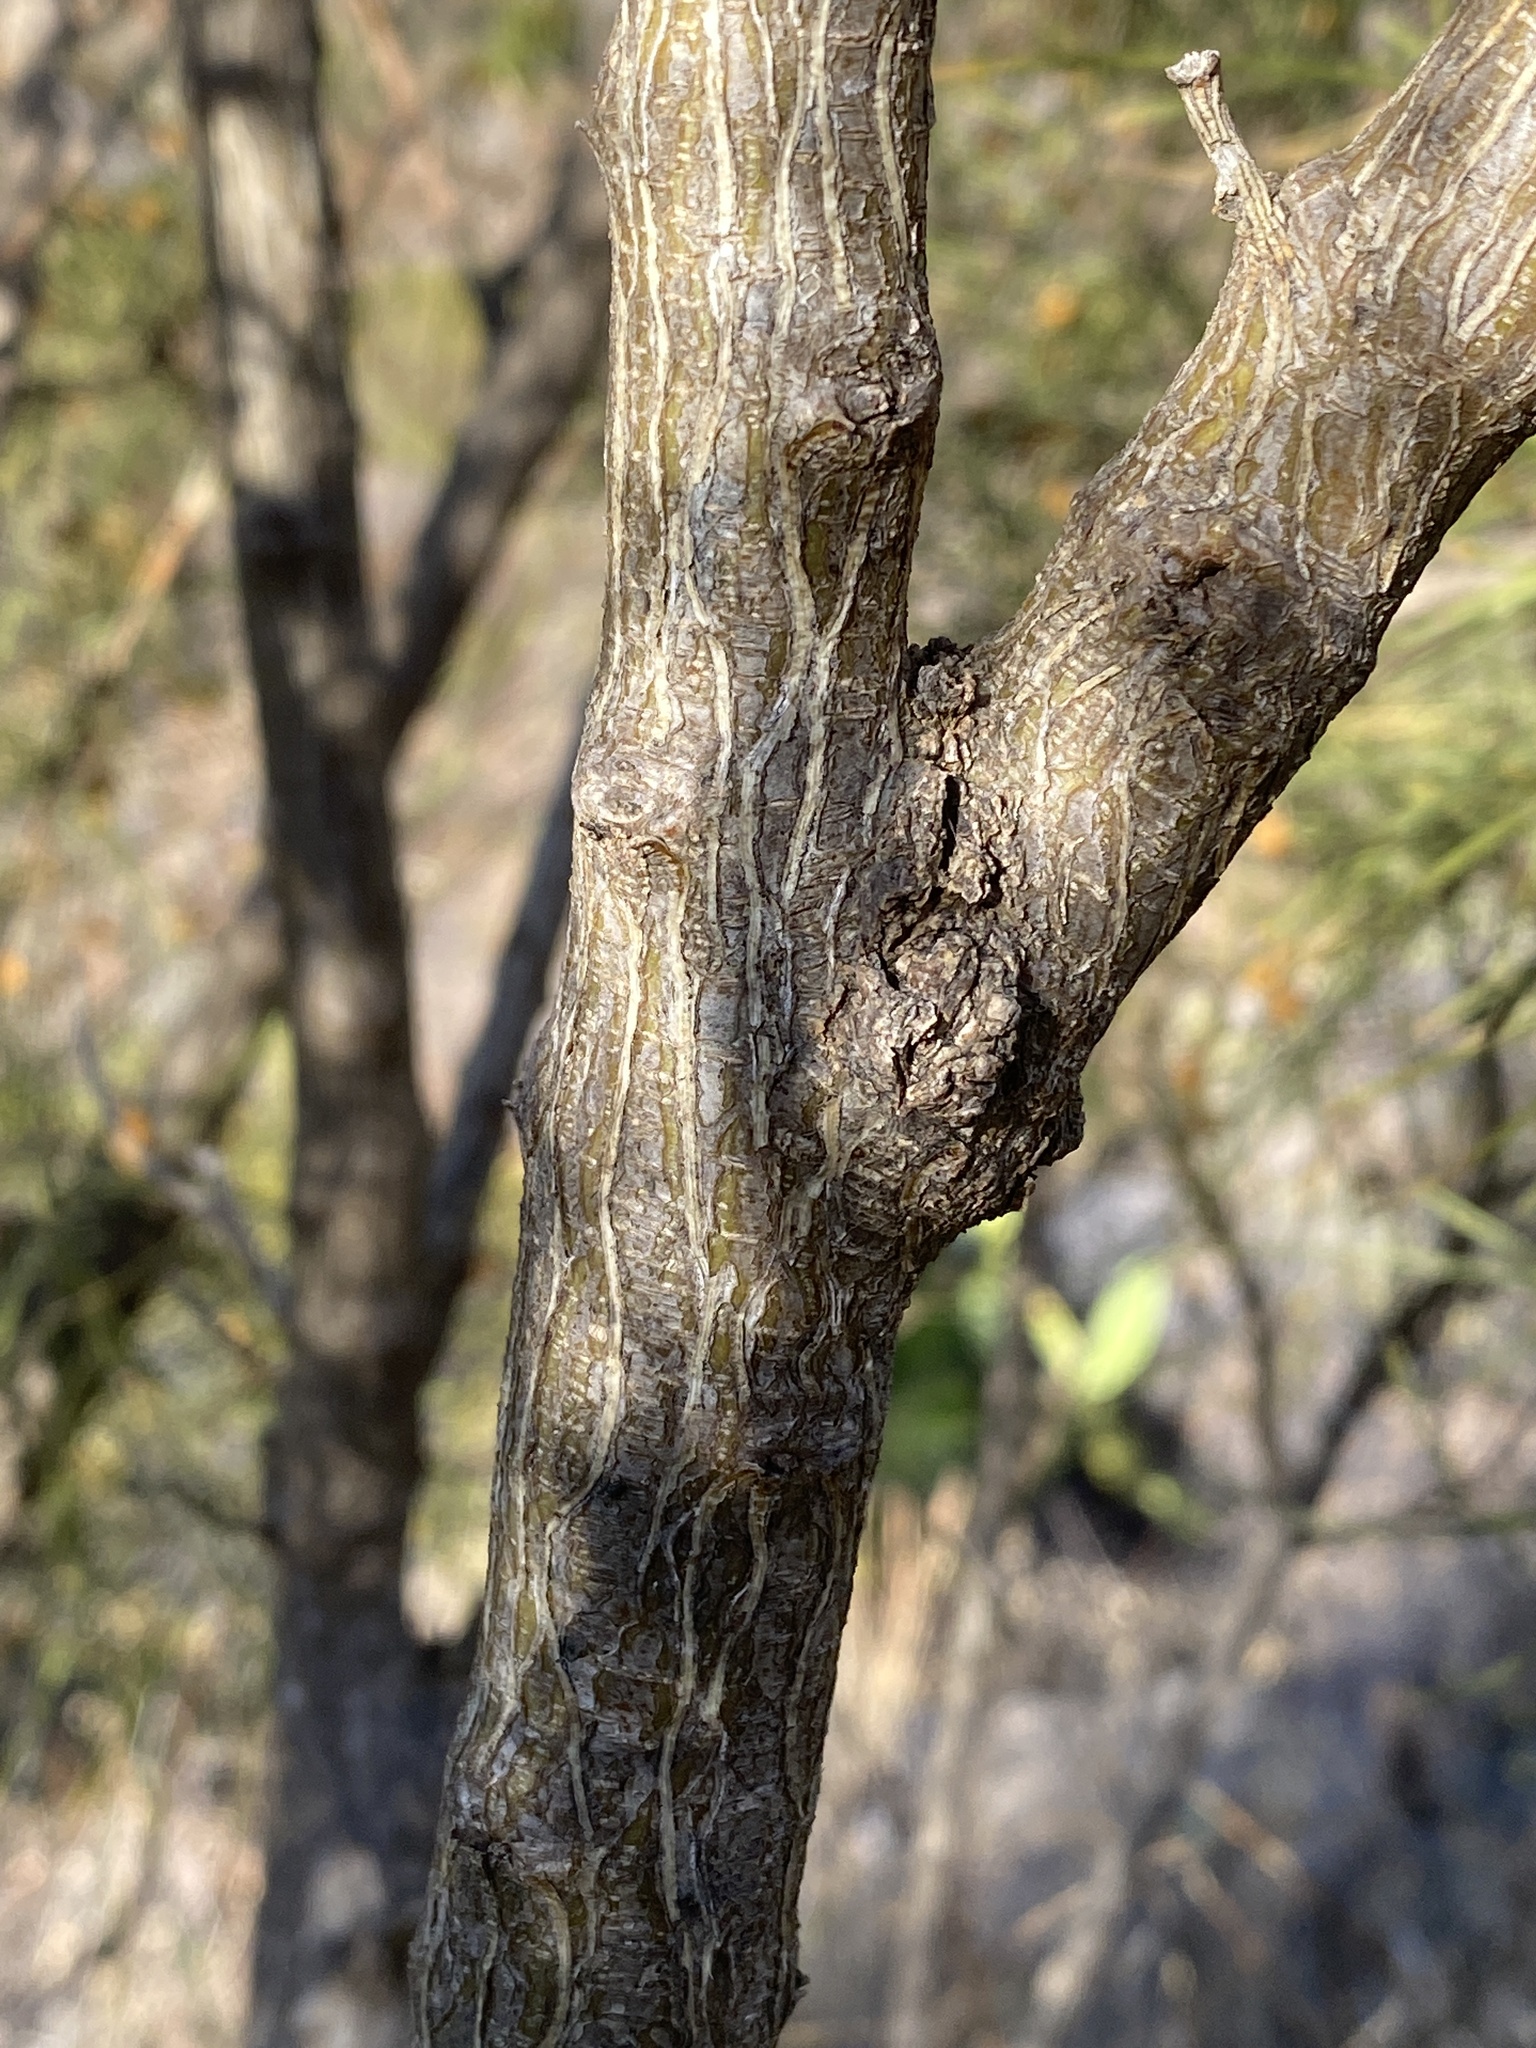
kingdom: Plantae
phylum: Tracheophyta
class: Magnoliopsida
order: Fabales
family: Fabaceae
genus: Retama
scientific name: Retama rhodorhizoides
